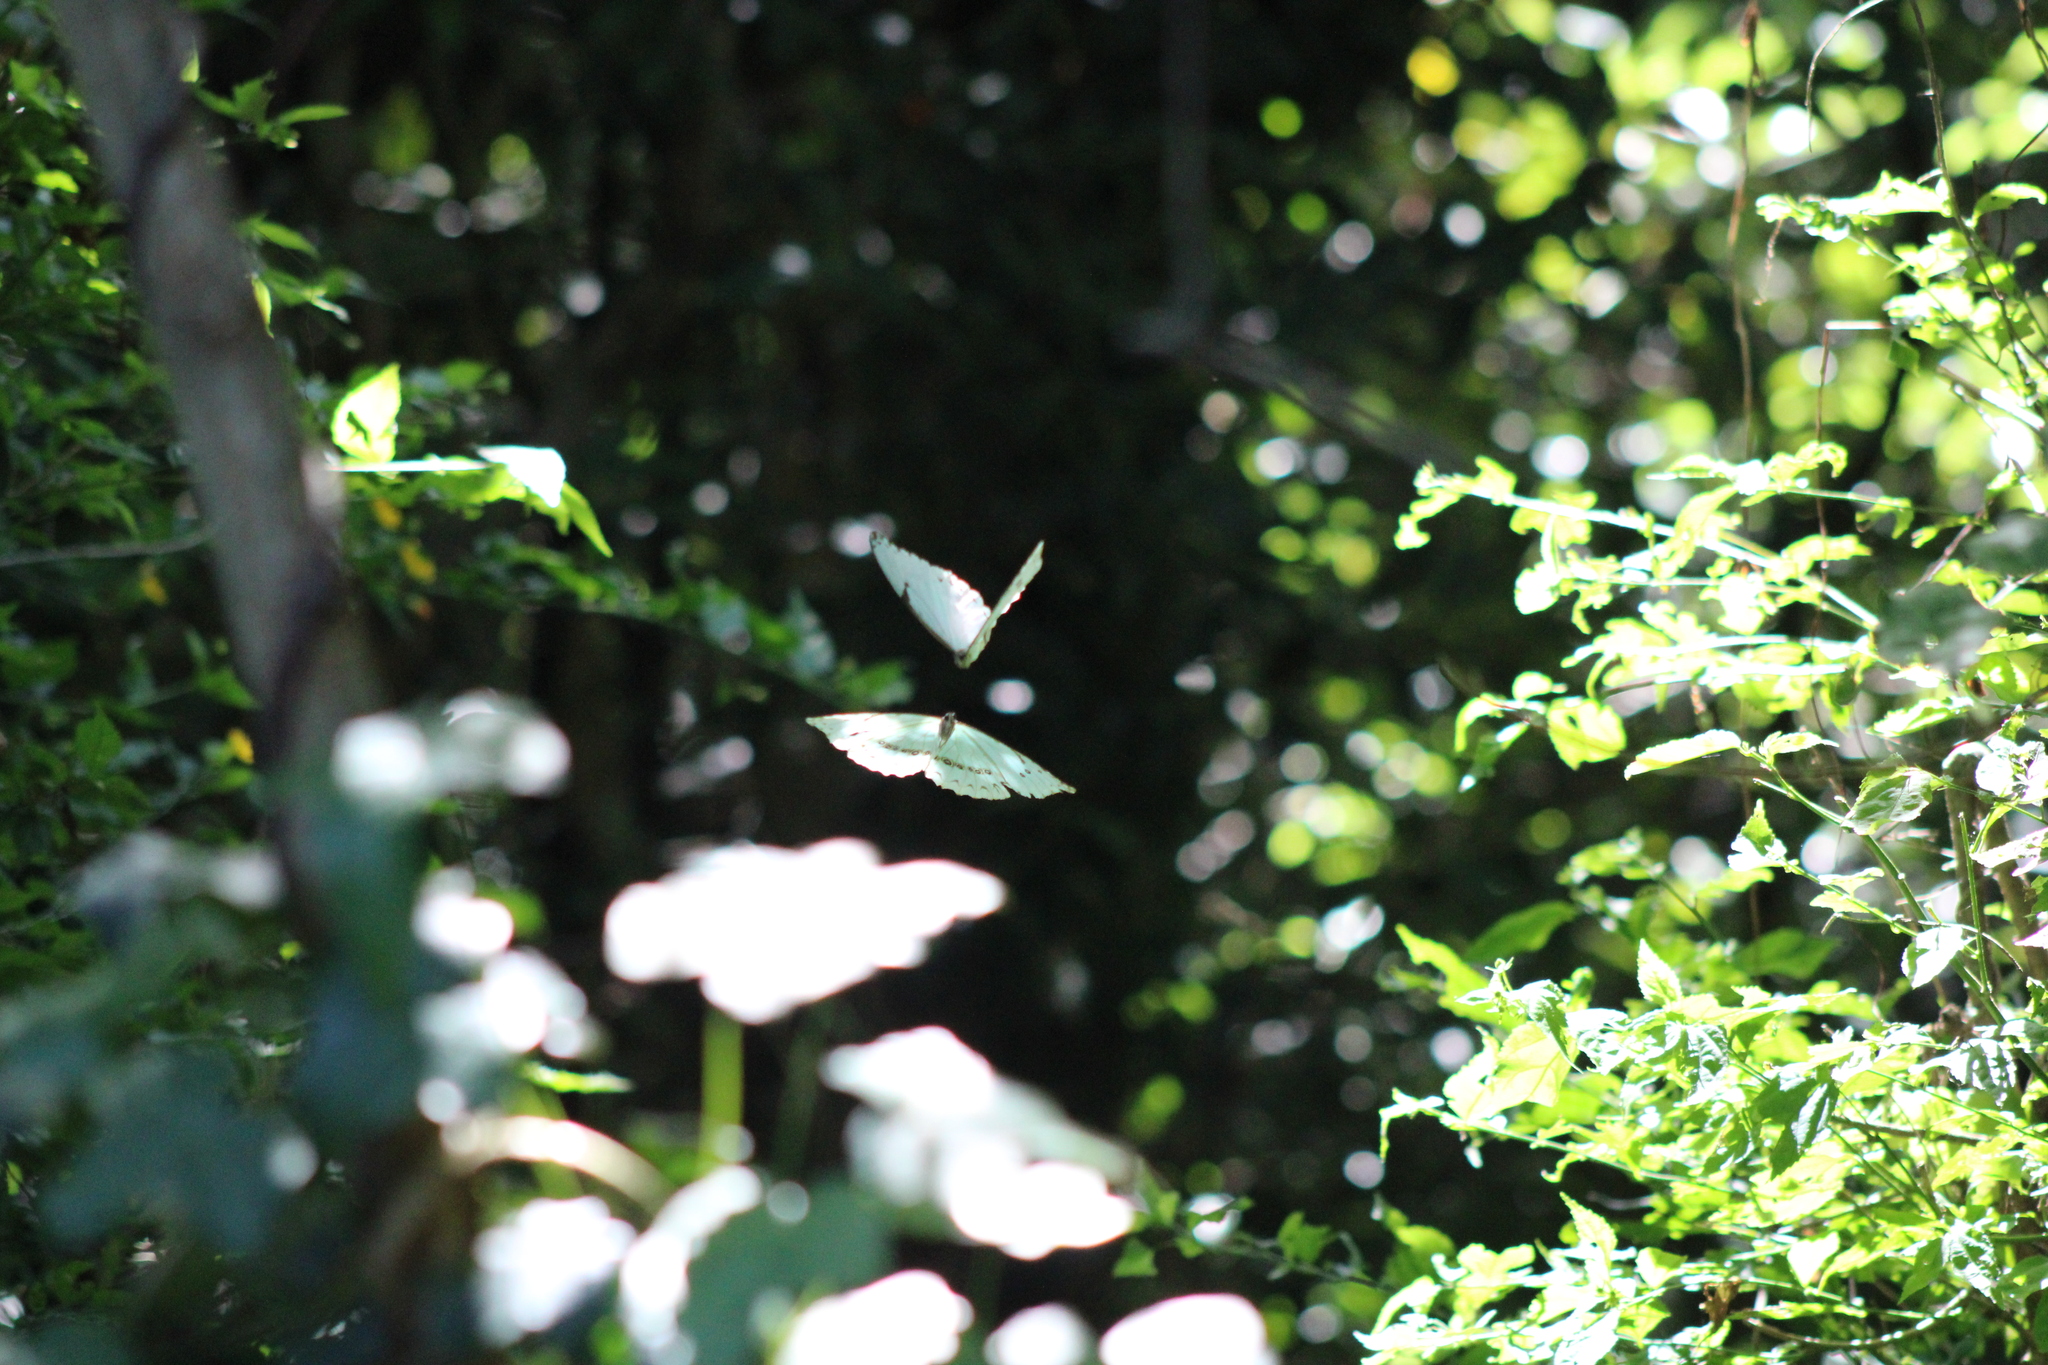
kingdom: Animalia
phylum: Arthropoda
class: Insecta
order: Lepidoptera
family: Nymphalidae
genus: Morpho
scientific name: Morpho epistrophus
